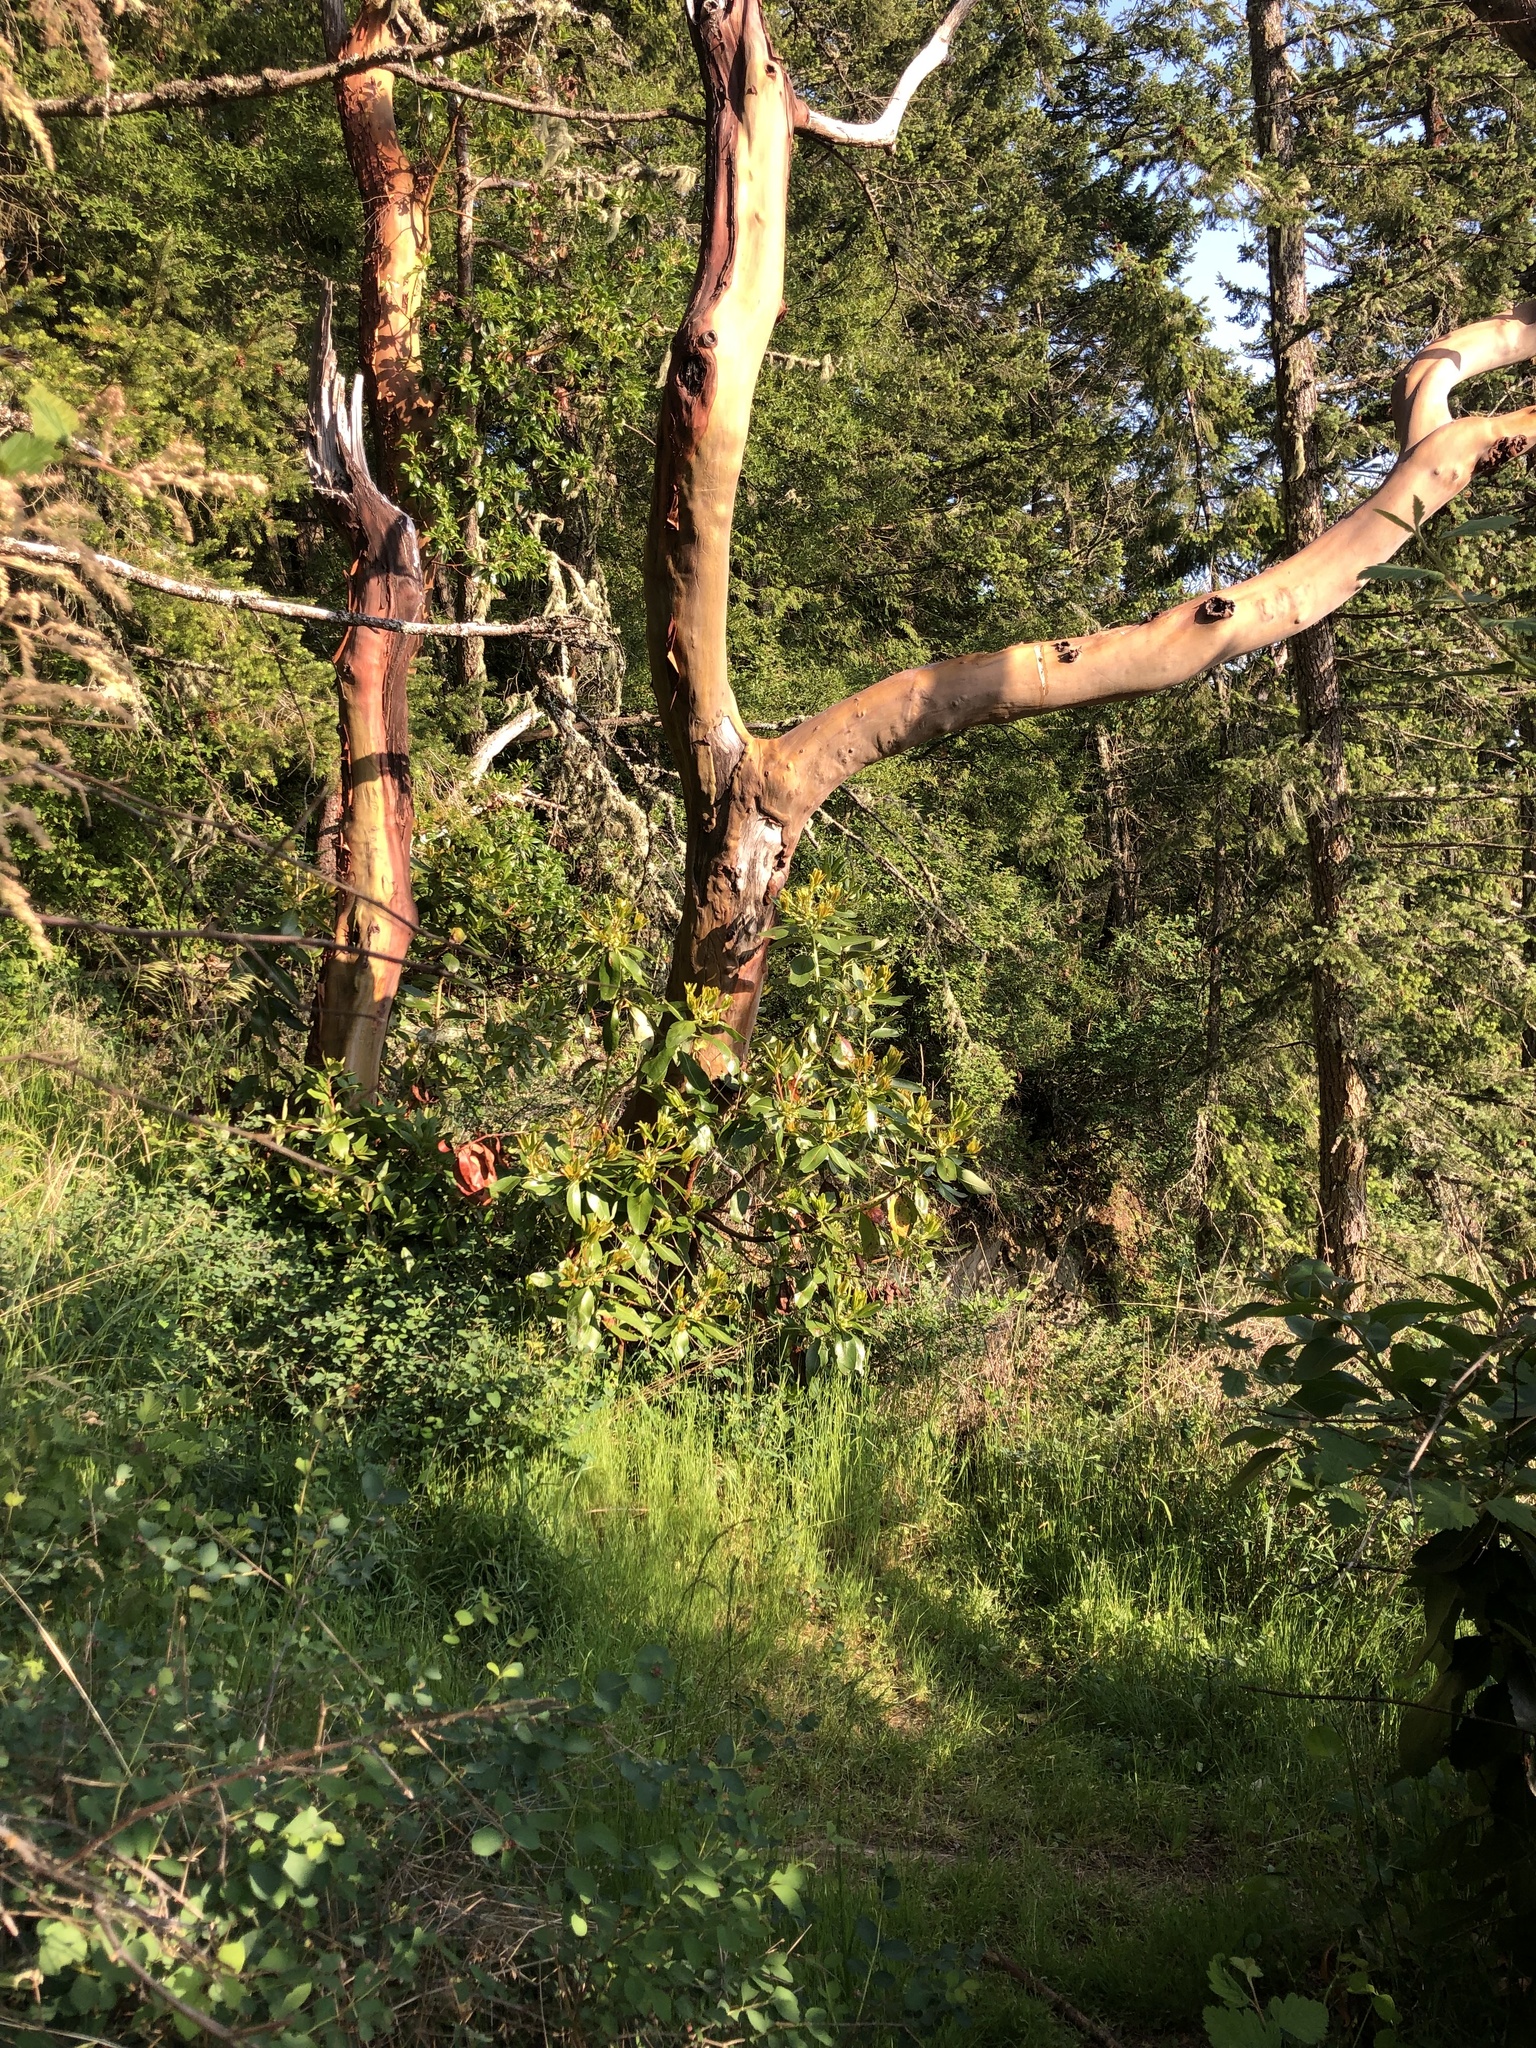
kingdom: Plantae
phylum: Tracheophyta
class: Magnoliopsida
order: Ericales
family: Ericaceae
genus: Arbutus
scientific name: Arbutus menziesii
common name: Pacific madrone
